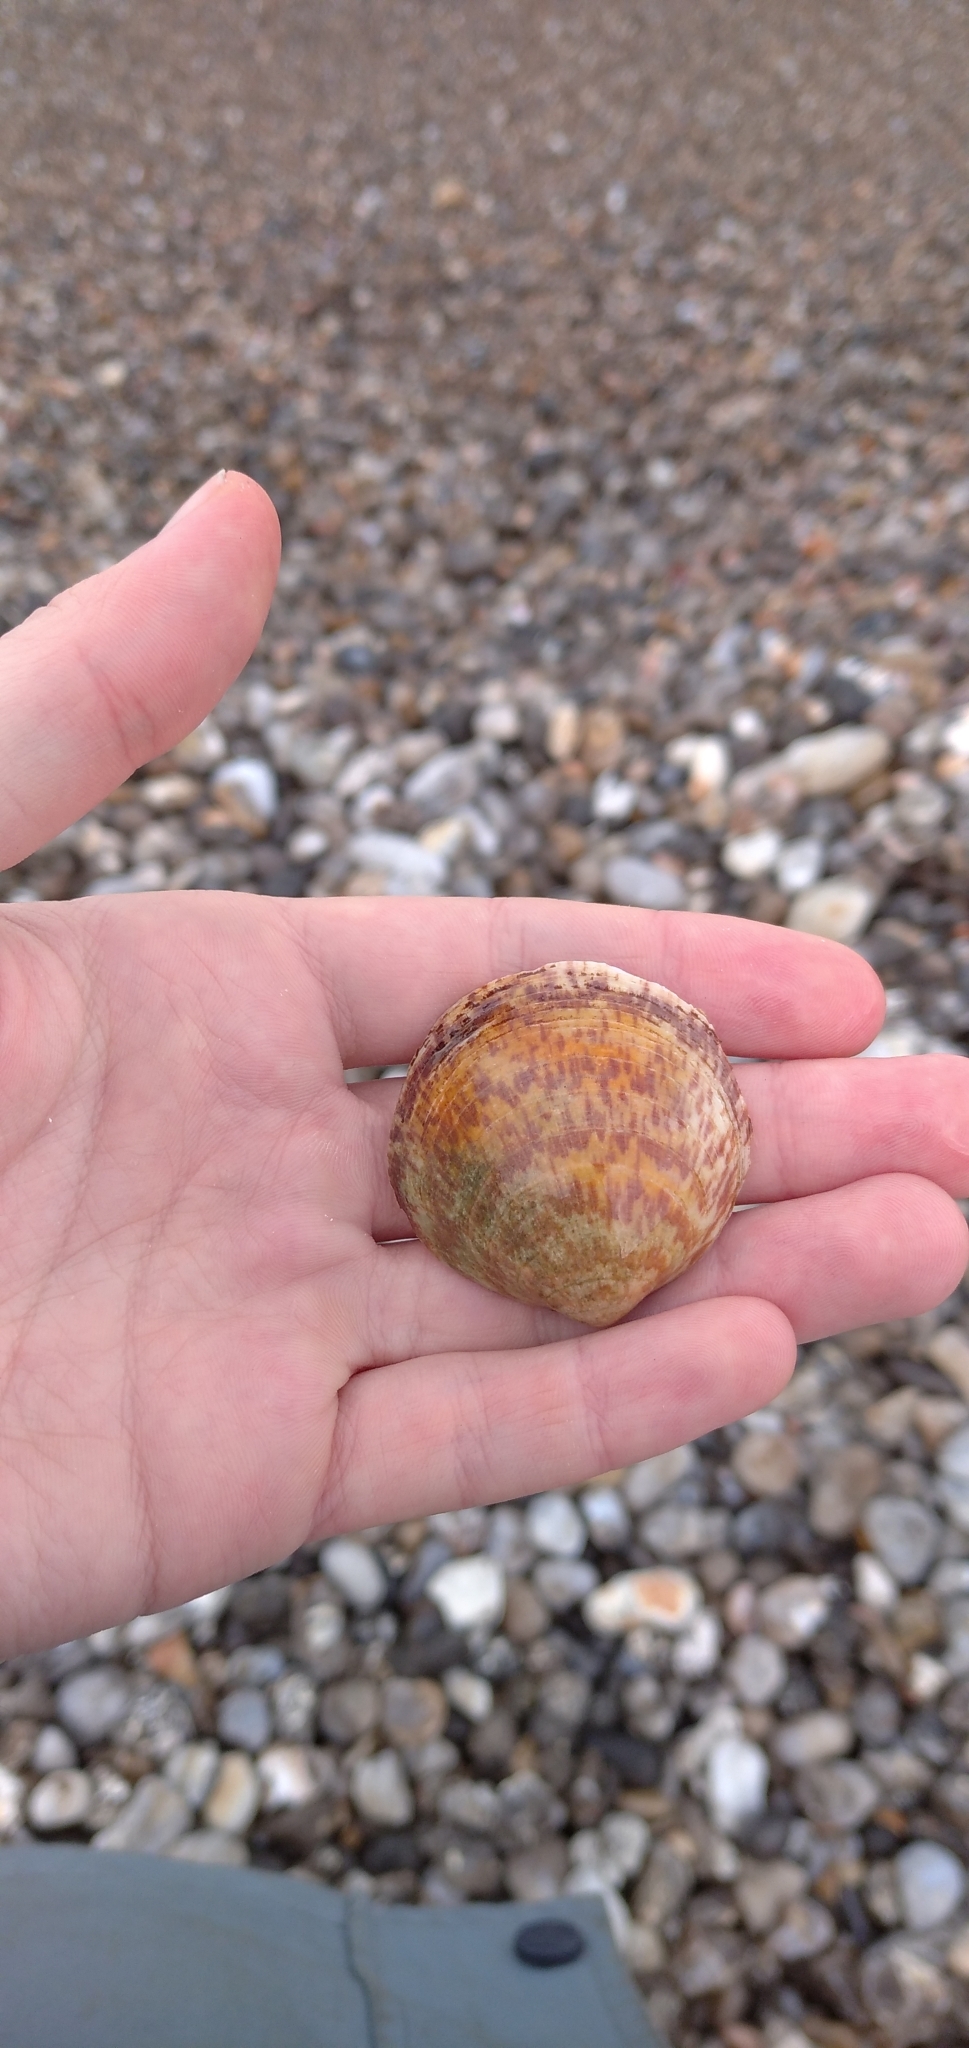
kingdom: Animalia
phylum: Mollusca
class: Bivalvia
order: Arcida
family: Glycymerididae
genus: Glycymeris
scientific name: Glycymeris glycymeris
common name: Dog-cockle
